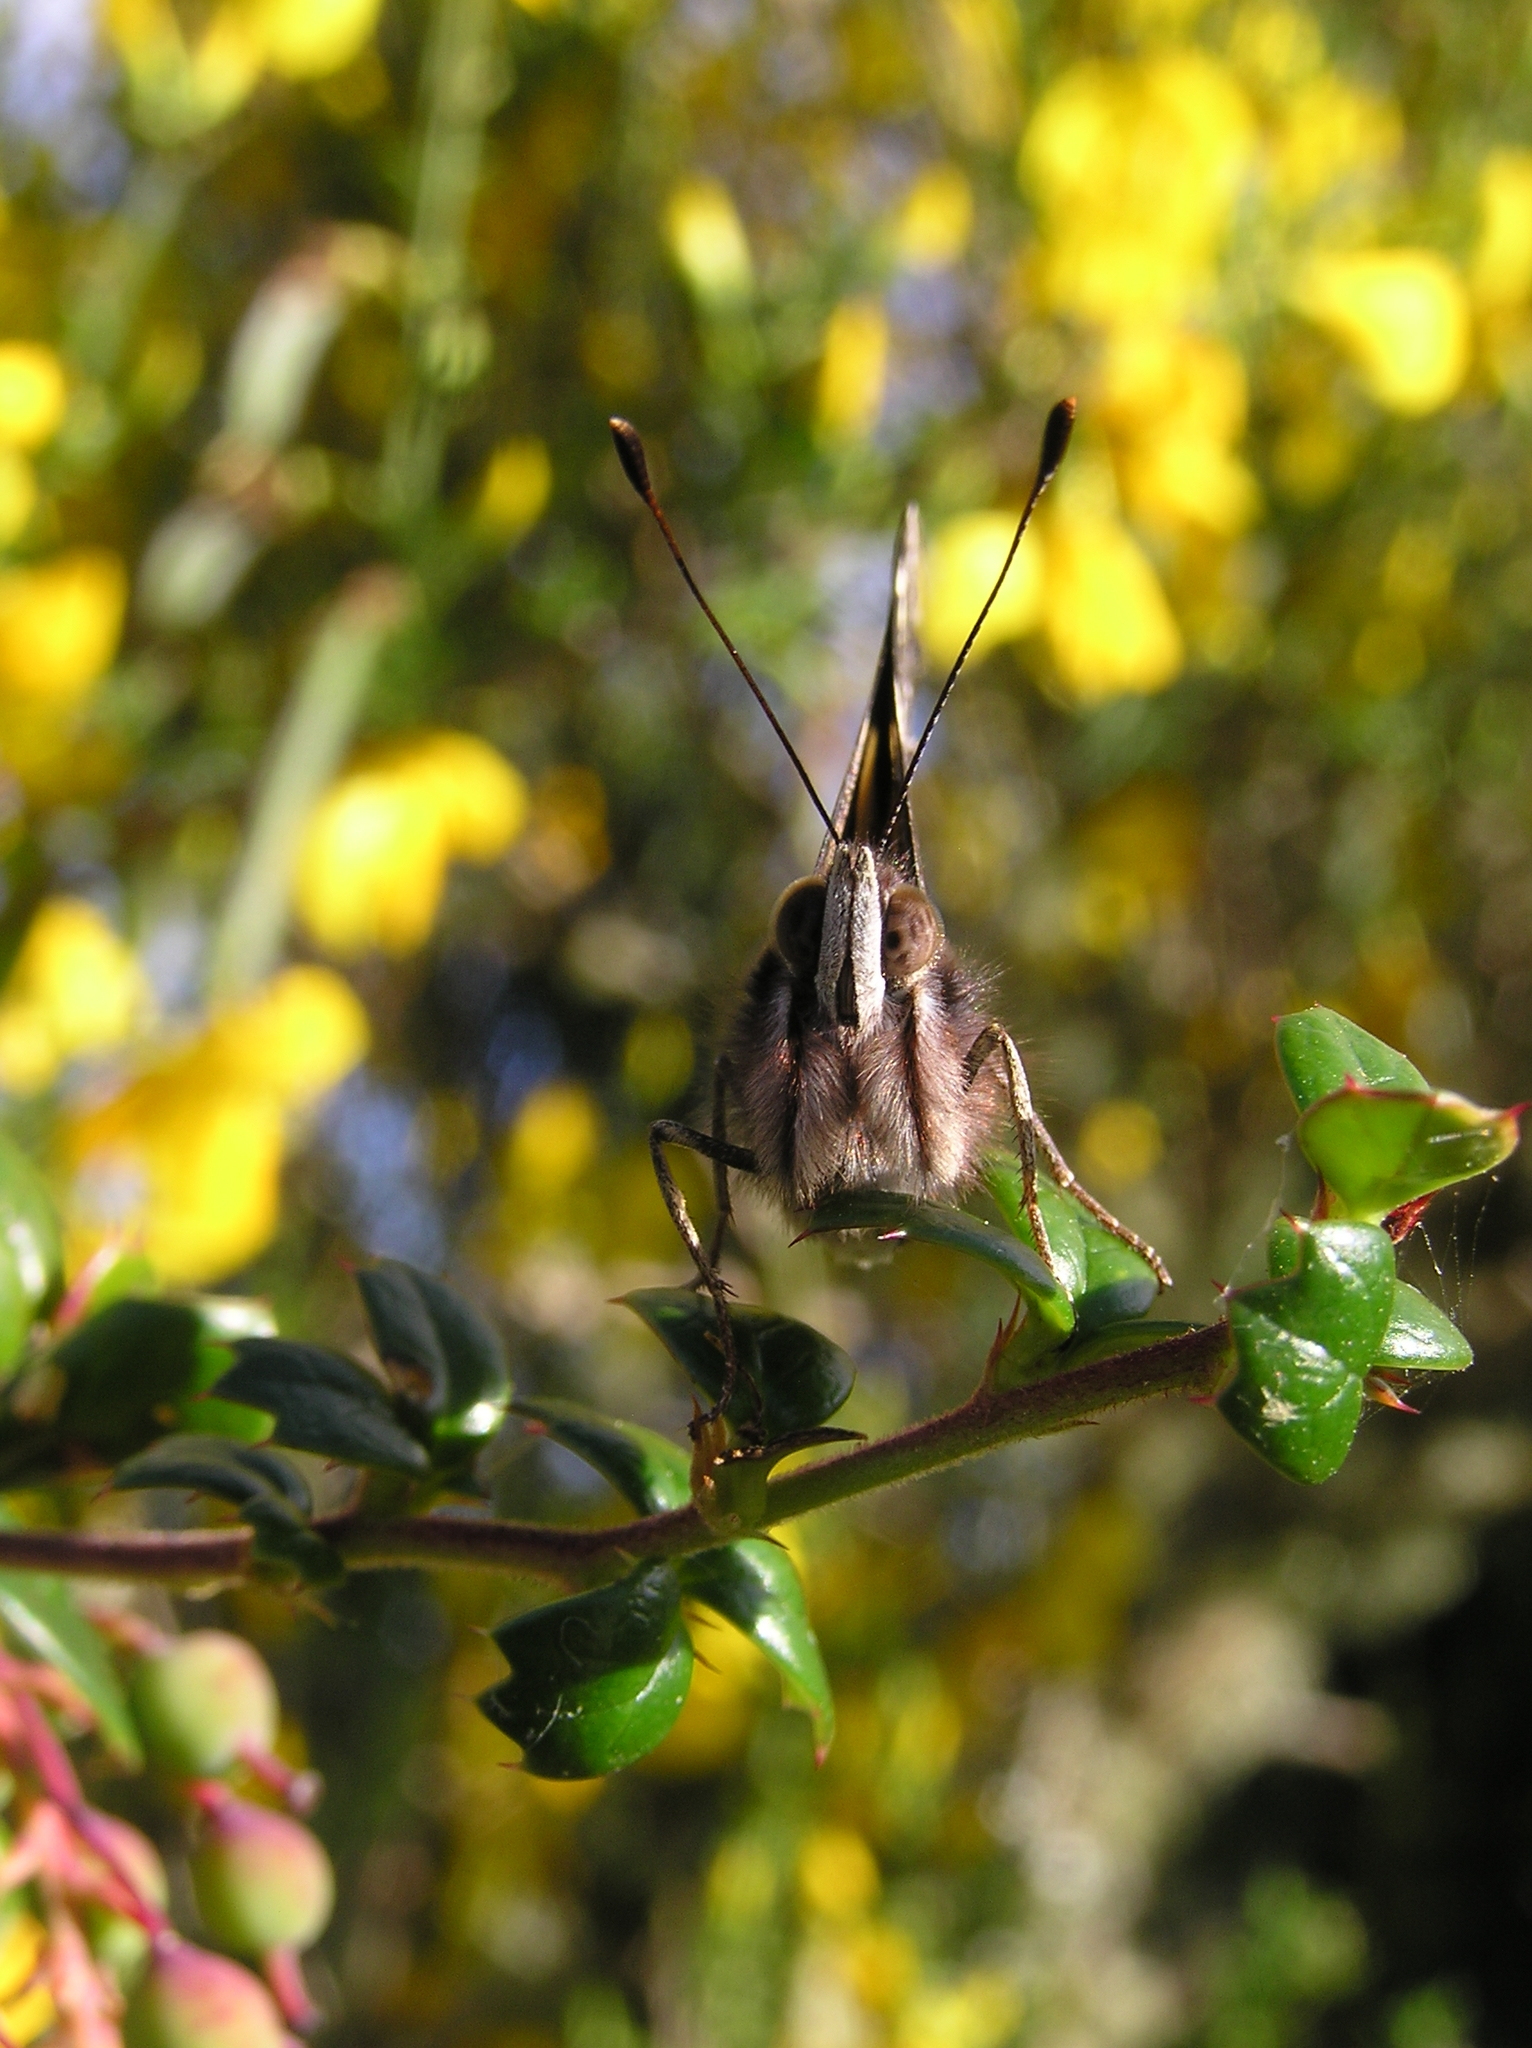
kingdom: Animalia
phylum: Arthropoda
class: Insecta
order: Lepidoptera
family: Nymphalidae
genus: Vanessa
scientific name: Vanessa itea
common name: Yellow admiral
